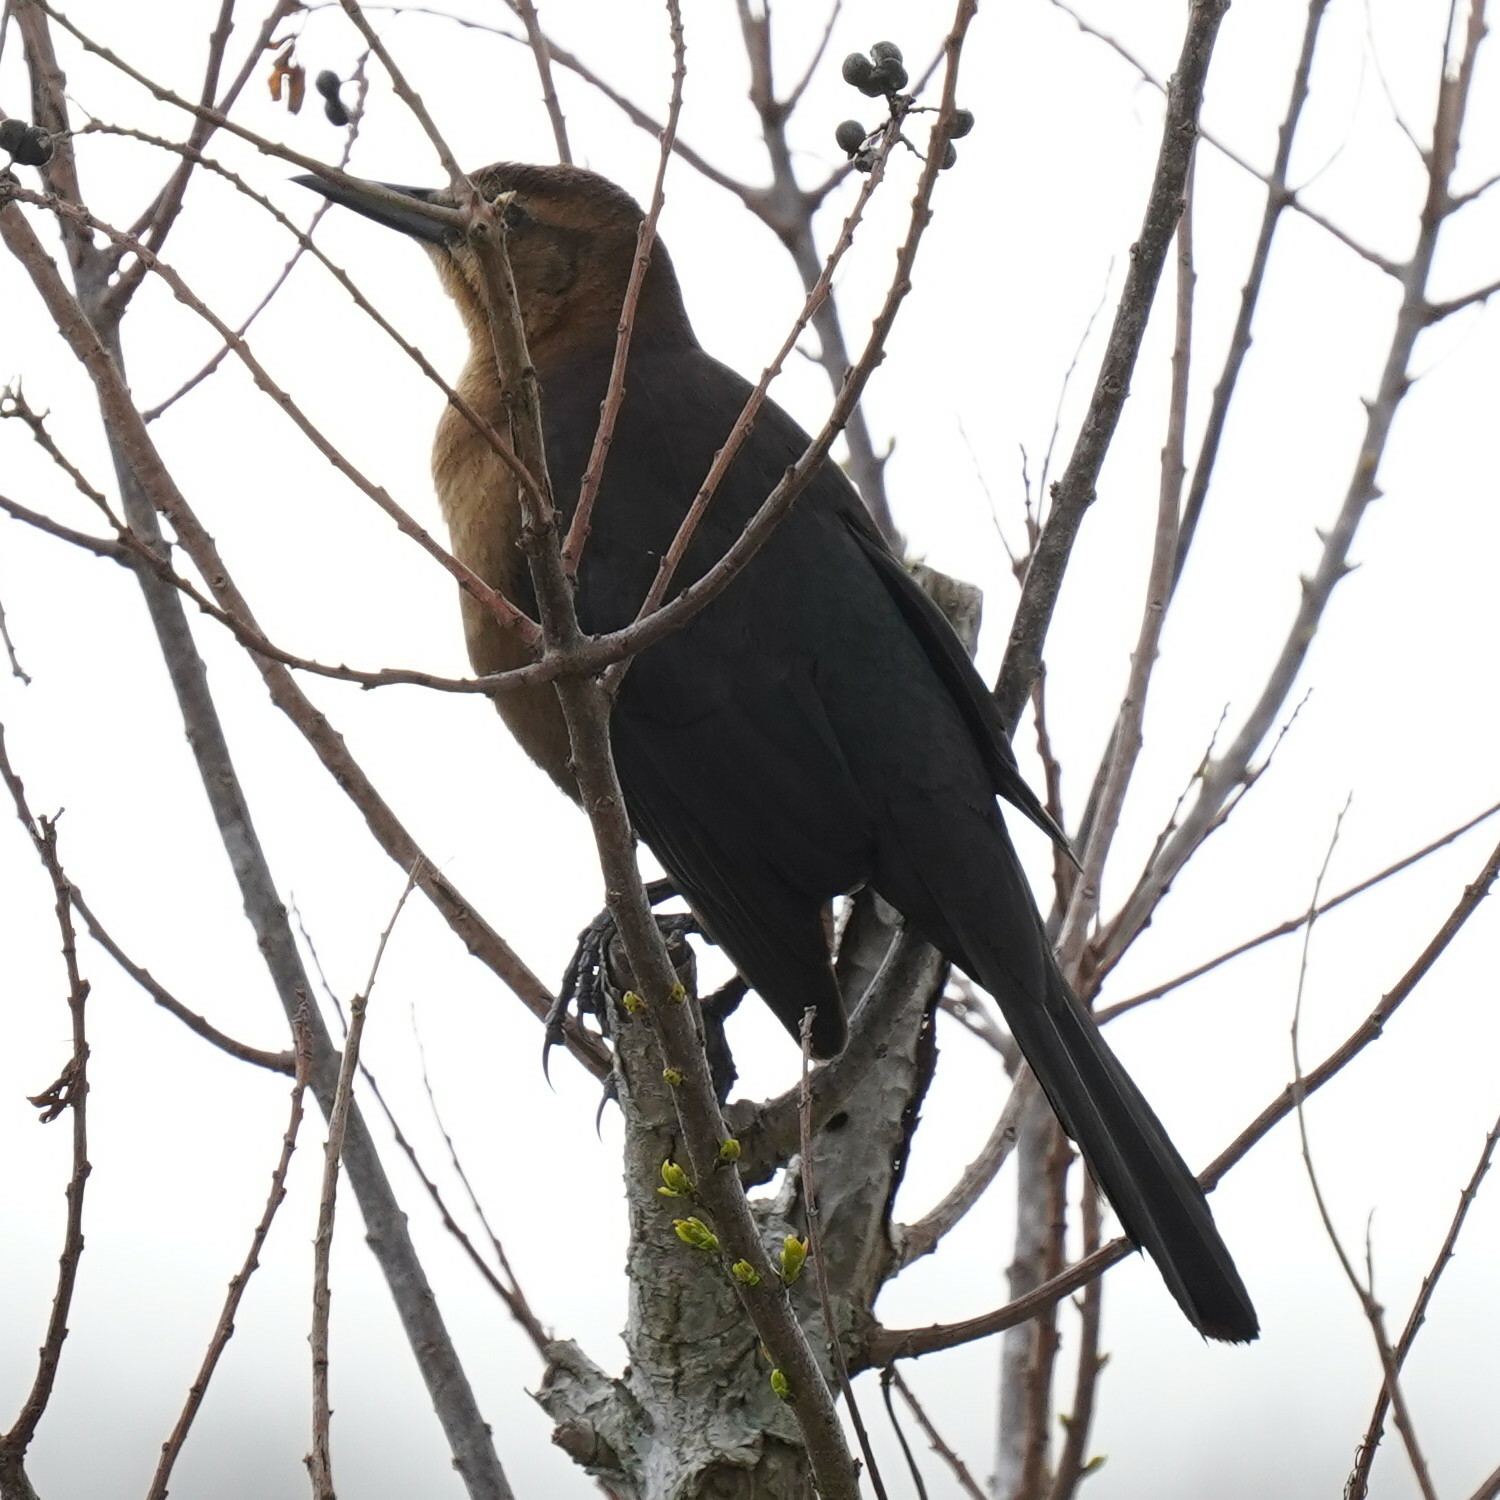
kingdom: Animalia
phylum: Chordata
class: Aves
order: Passeriformes
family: Icteridae
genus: Quiscalus
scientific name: Quiscalus mexicanus
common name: Great-tailed grackle
